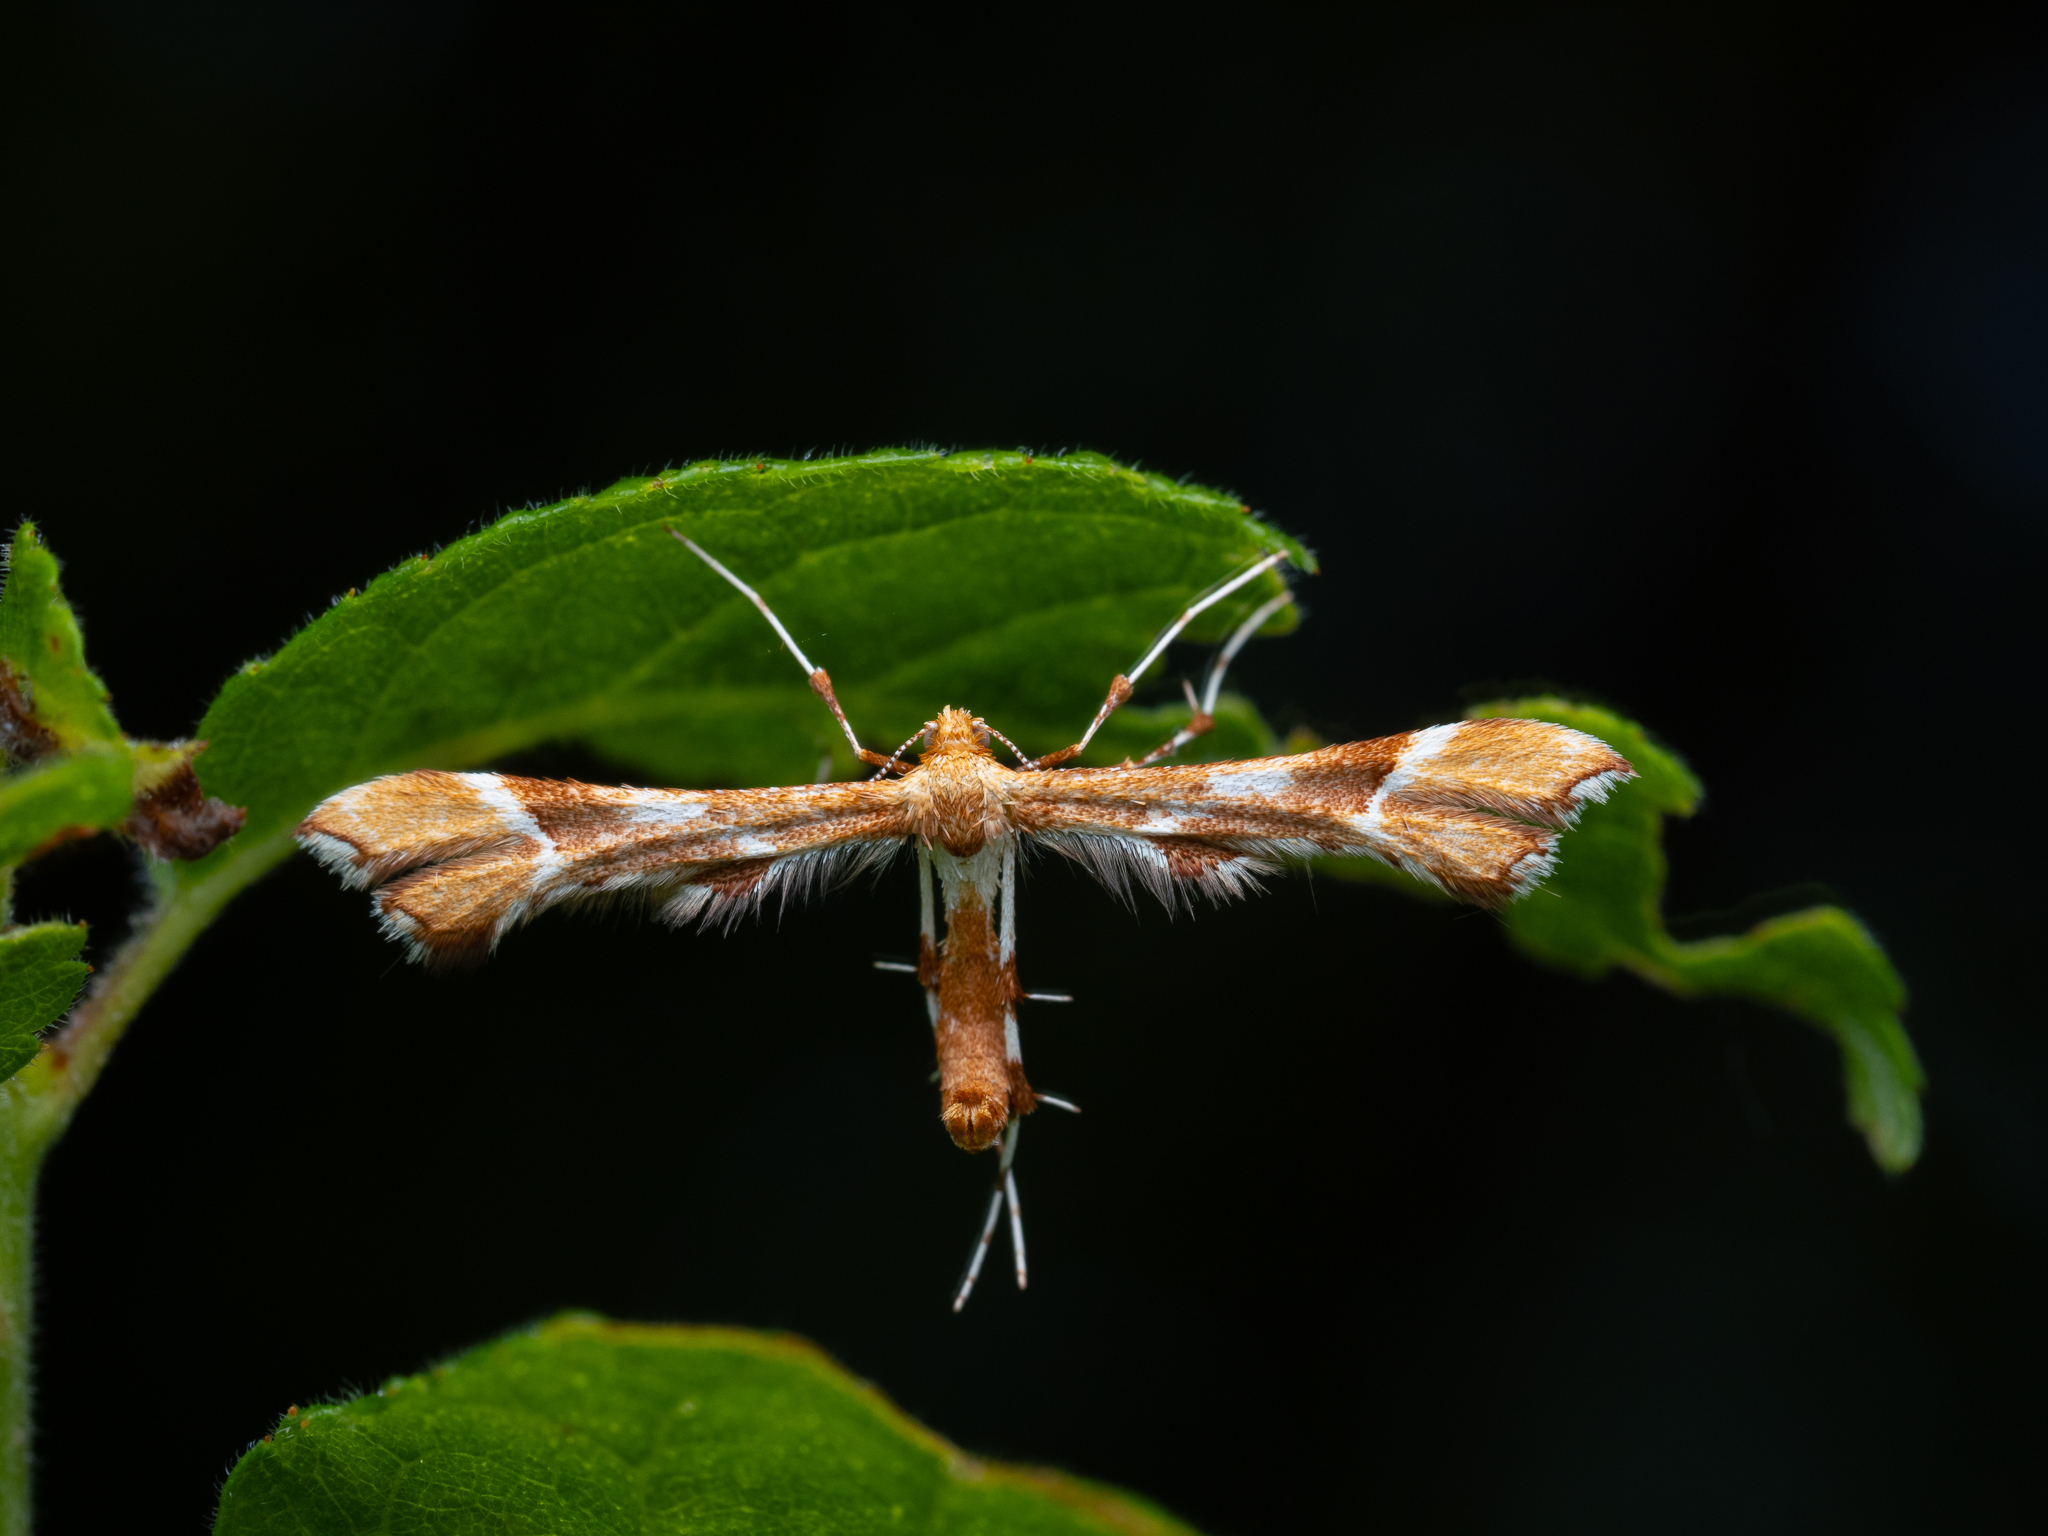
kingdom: Animalia
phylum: Arthropoda
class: Insecta
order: Lepidoptera
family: Pterophoridae
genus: Cnaemidophorus
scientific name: Cnaemidophorus rhododactyla
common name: Rose plume
